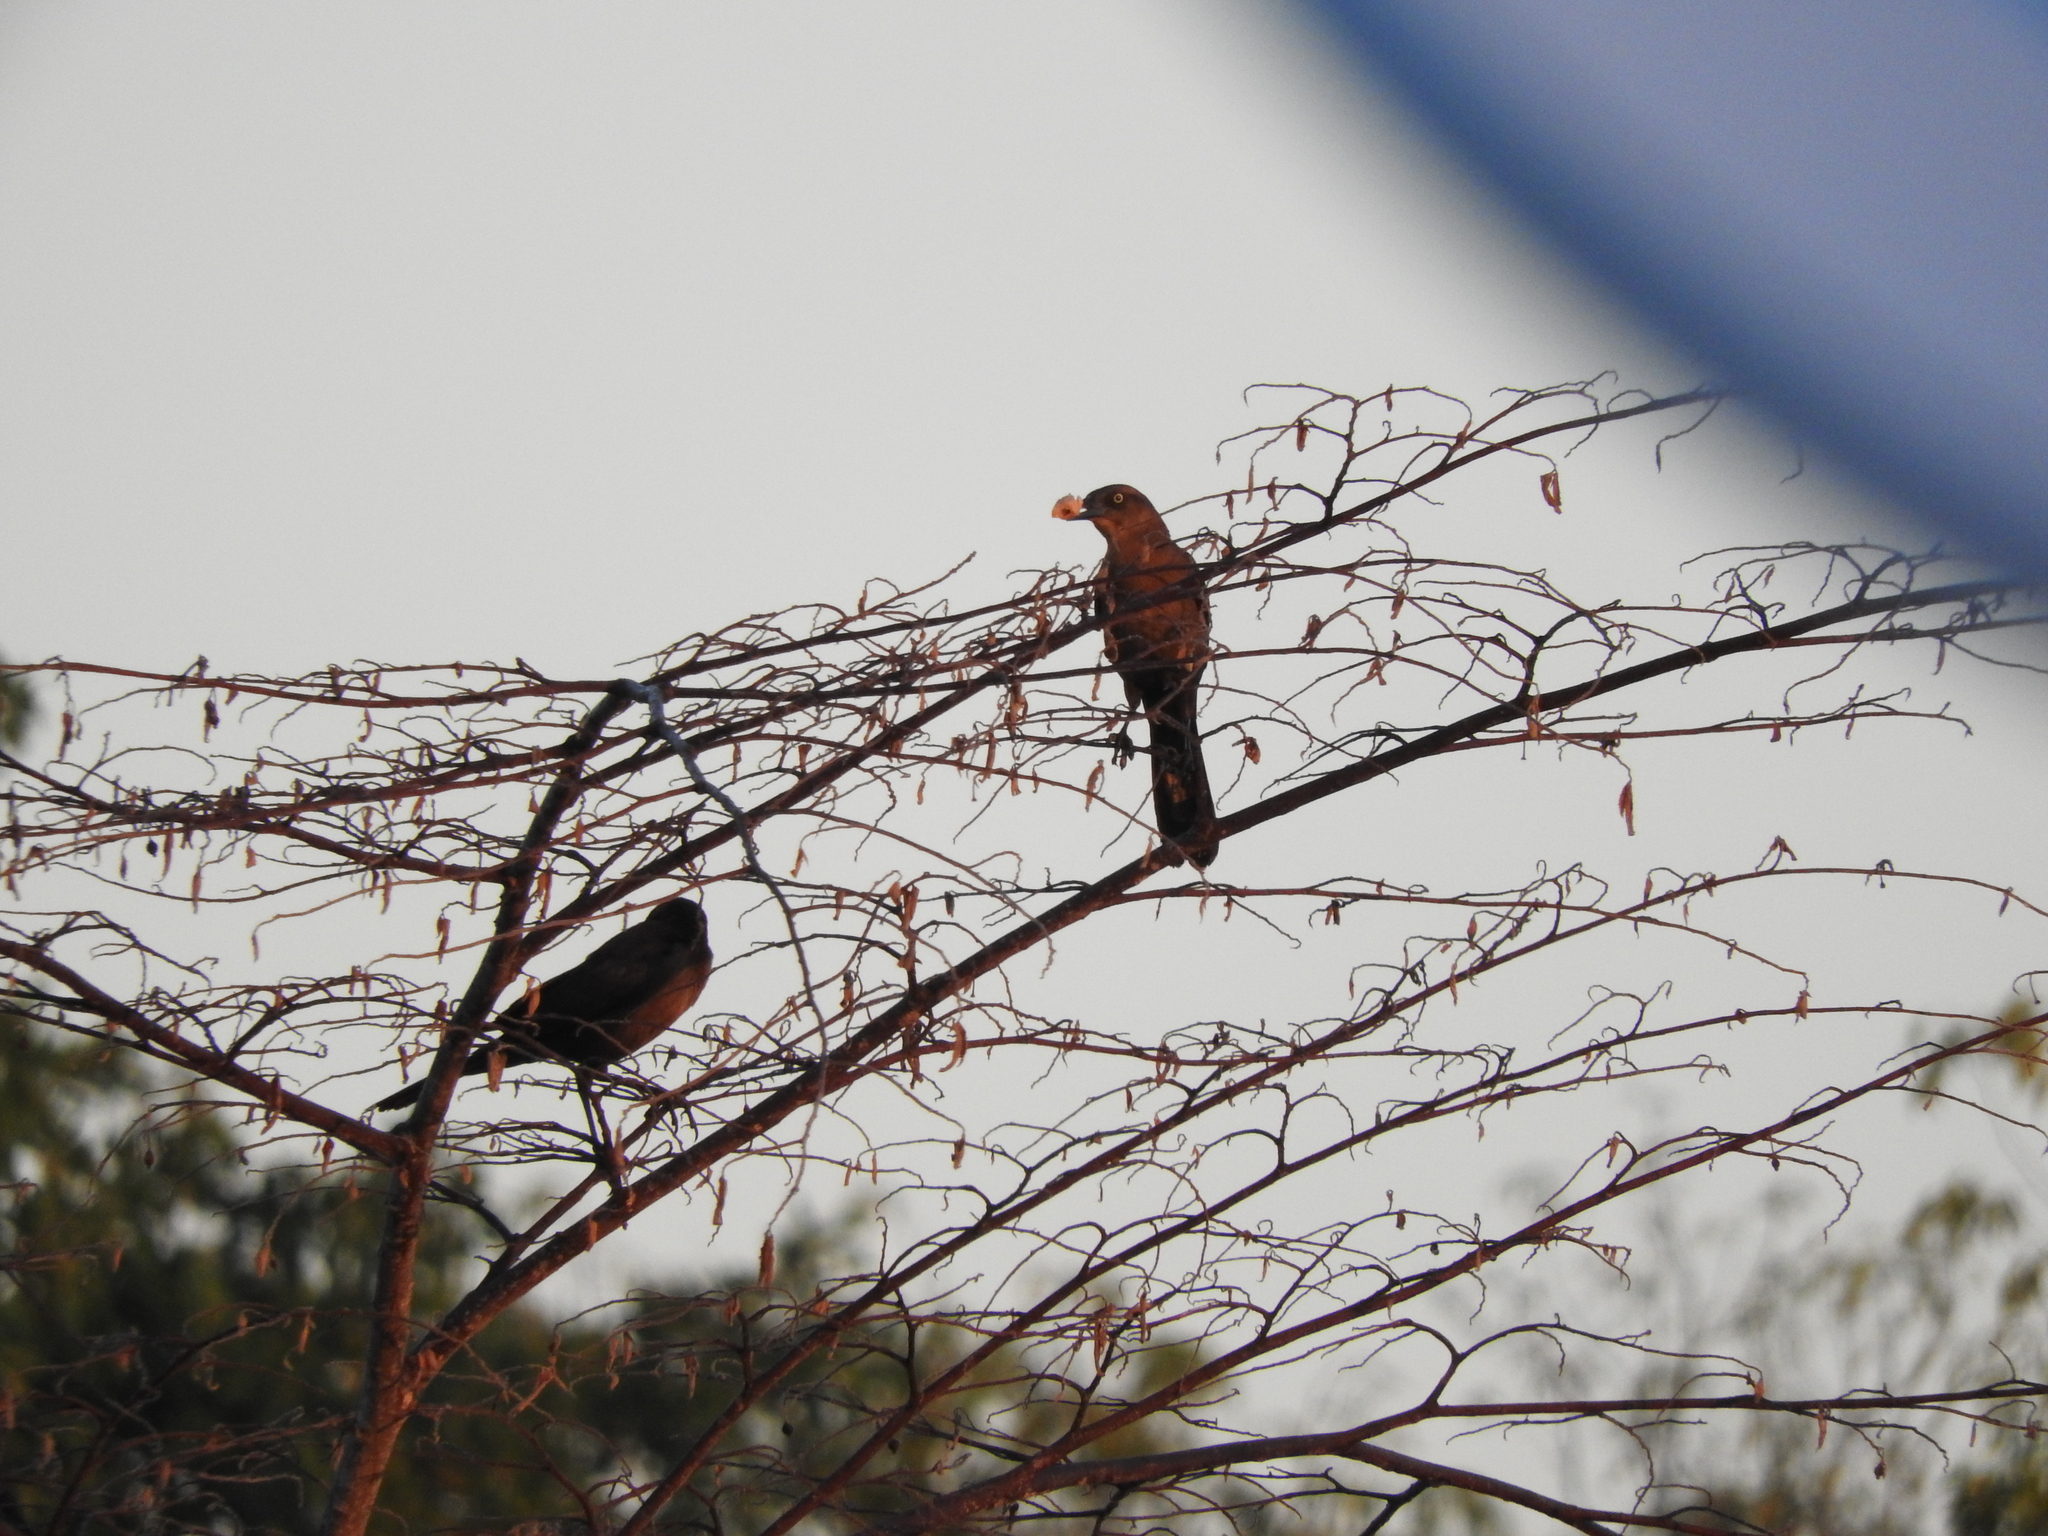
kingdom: Animalia
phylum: Chordata
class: Aves
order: Passeriformes
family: Icteridae
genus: Quiscalus
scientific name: Quiscalus mexicanus
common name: Great-tailed grackle
